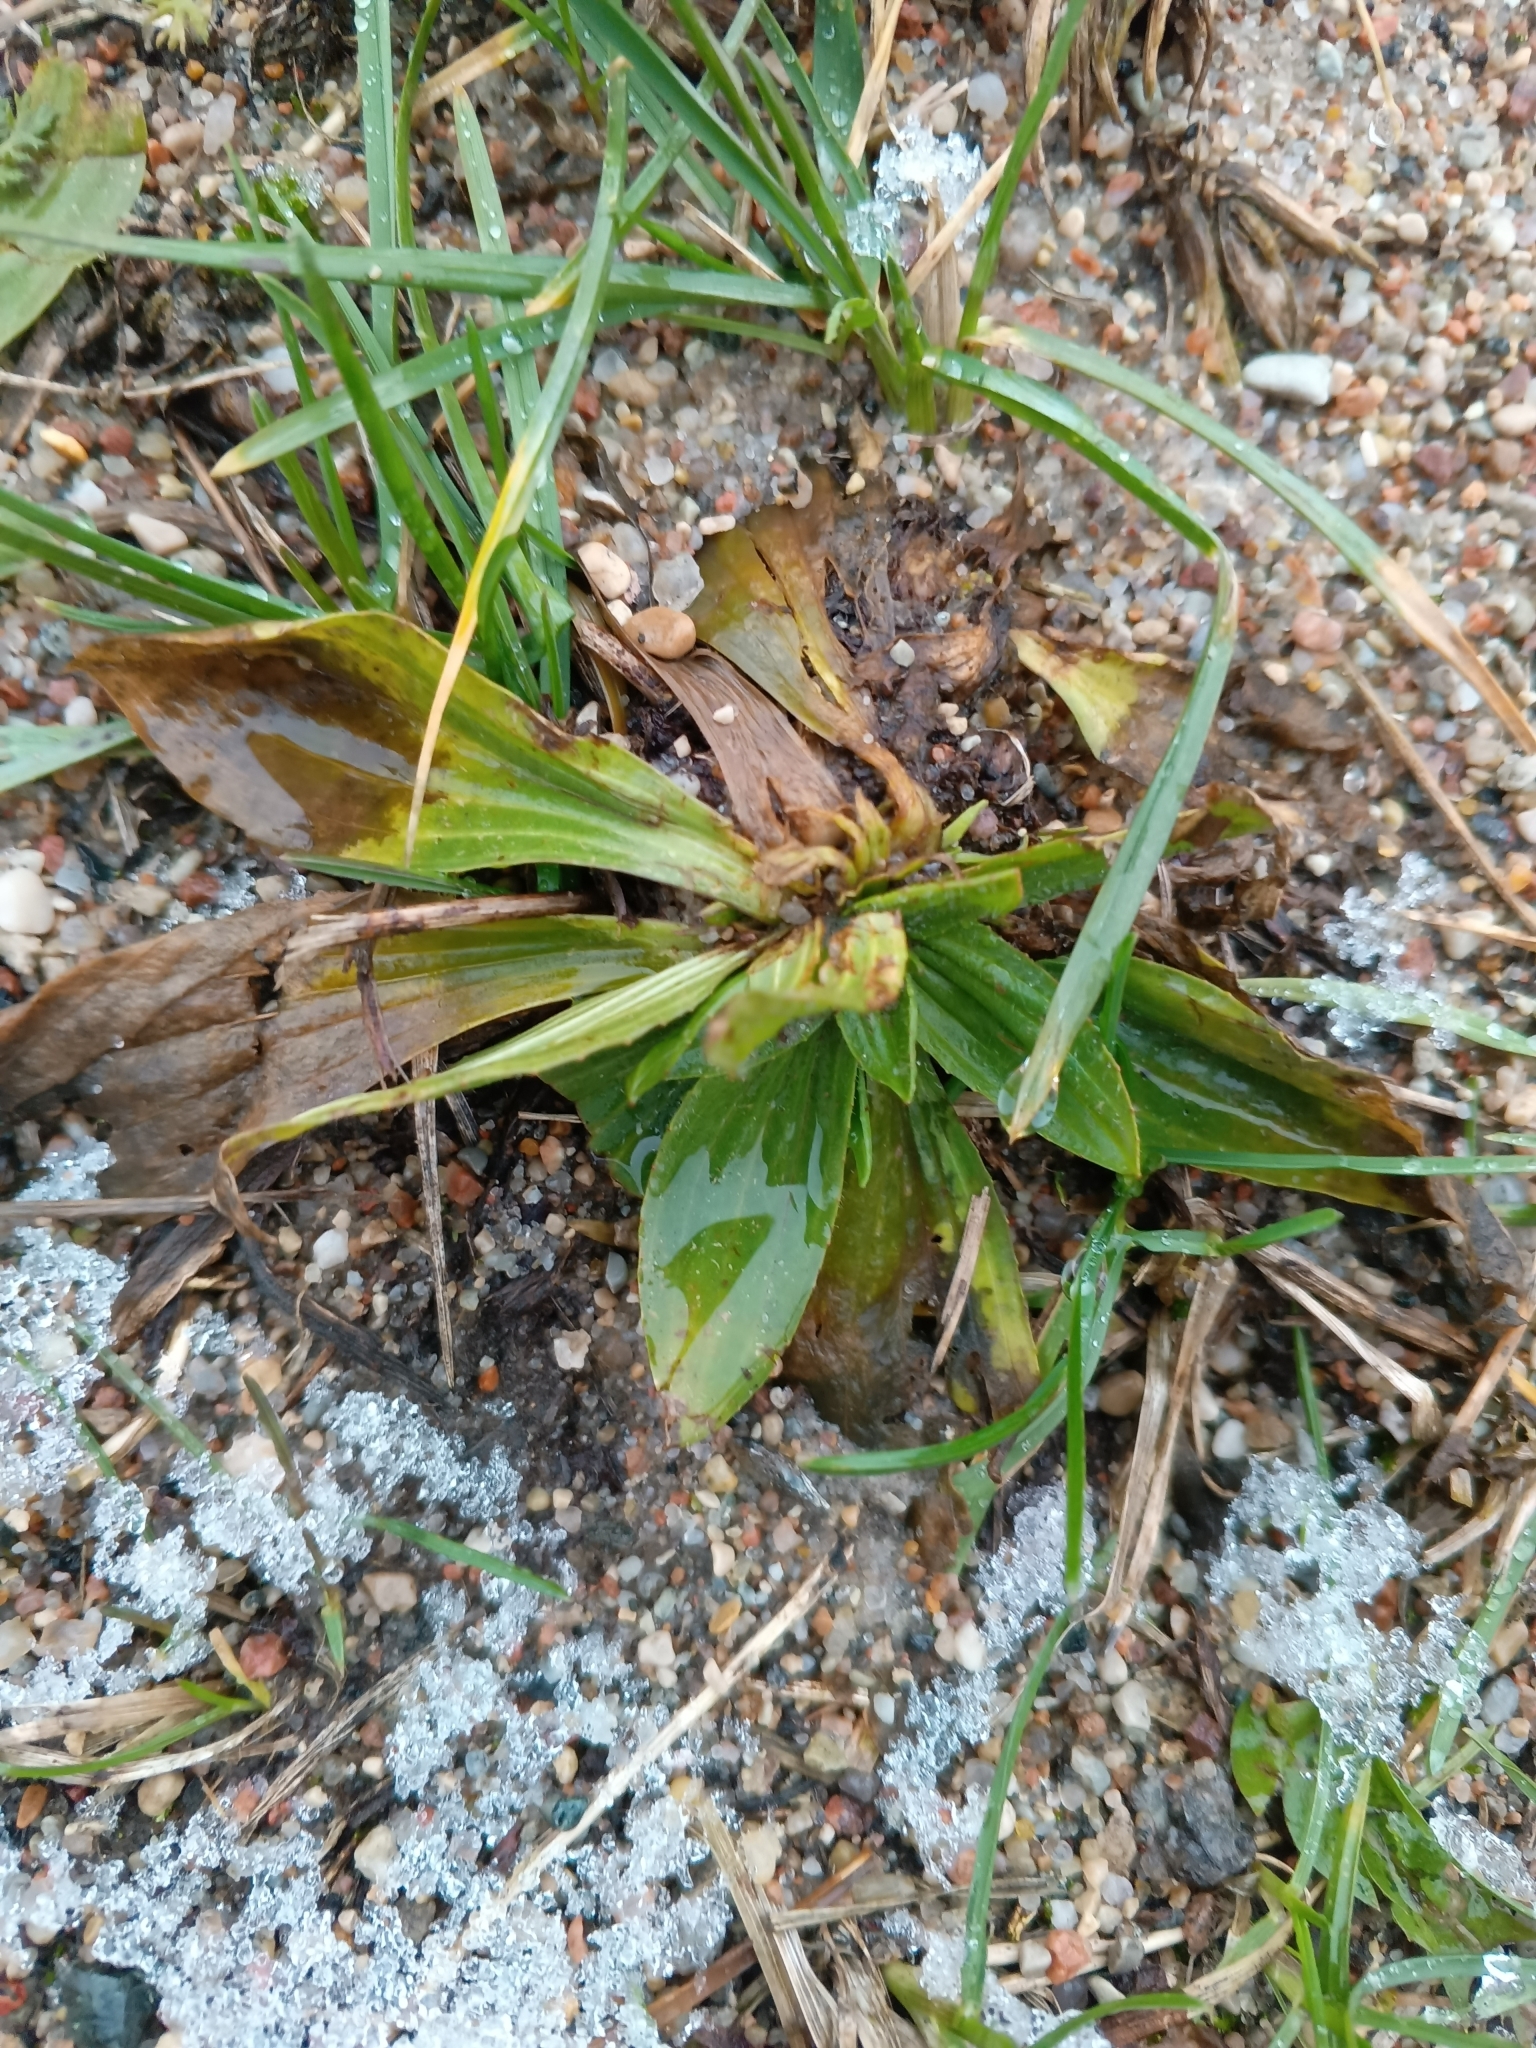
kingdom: Plantae
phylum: Tracheophyta
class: Magnoliopsida
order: Lamiales
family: Plantaginaceae
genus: Plantago
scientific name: Plantago lanceolata
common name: Ribwort plantain
